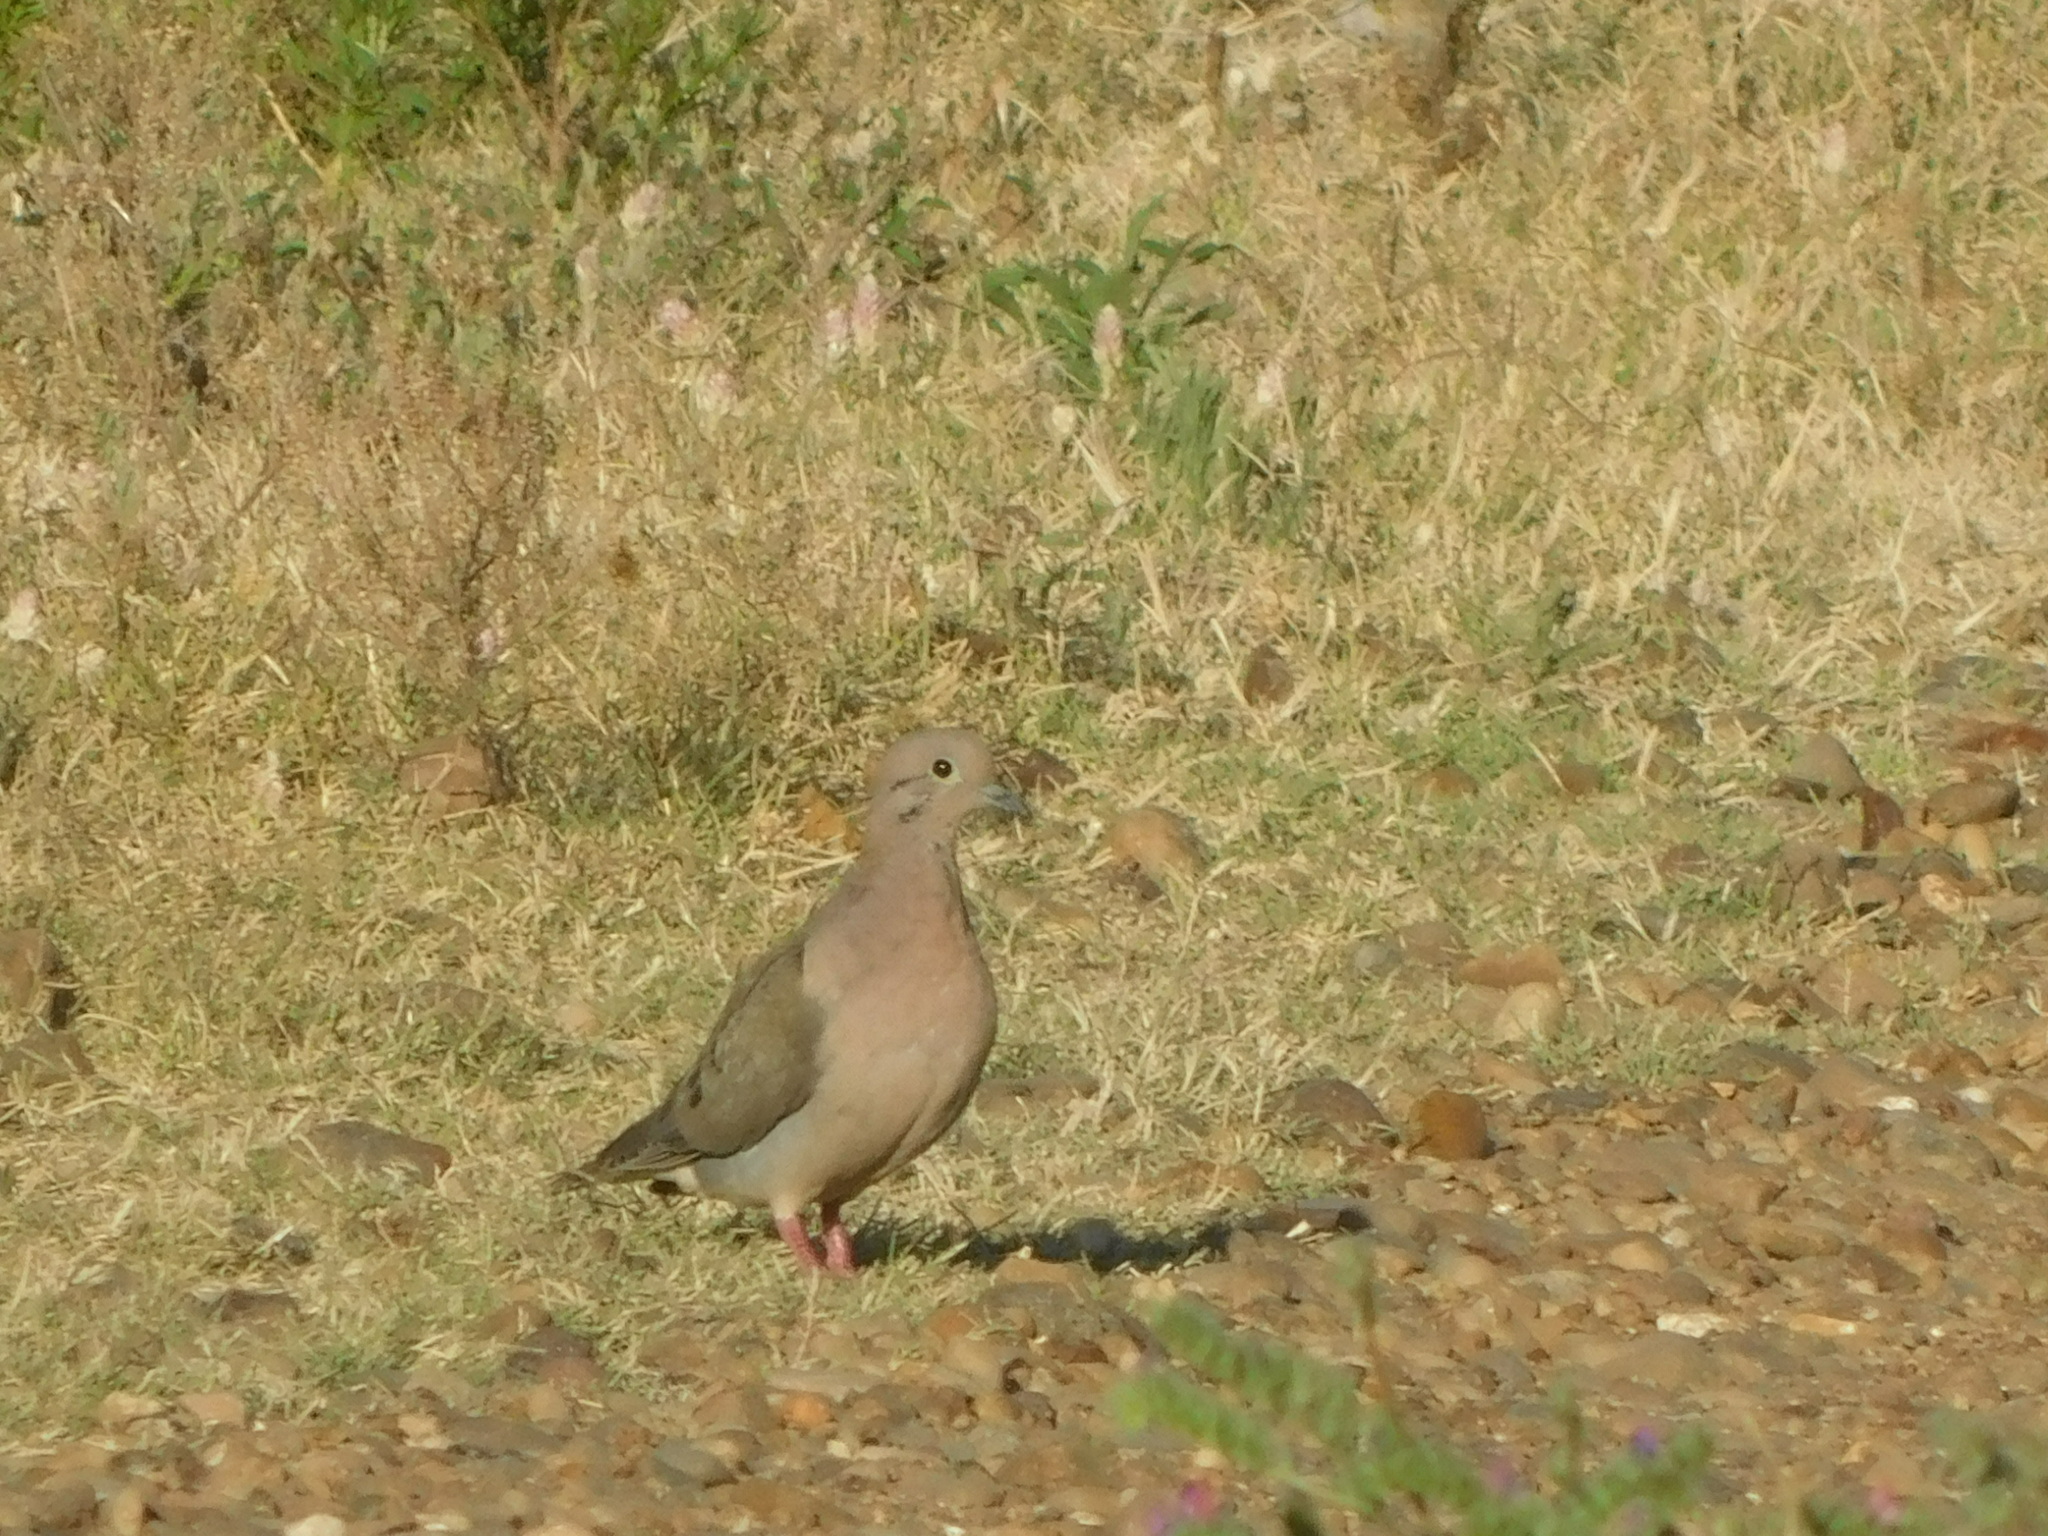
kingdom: Animalia
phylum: Chordata
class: Aves
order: Columbiformes
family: Columbidae
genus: Zenaida
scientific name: Zenaida auriculata
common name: Eared dove
